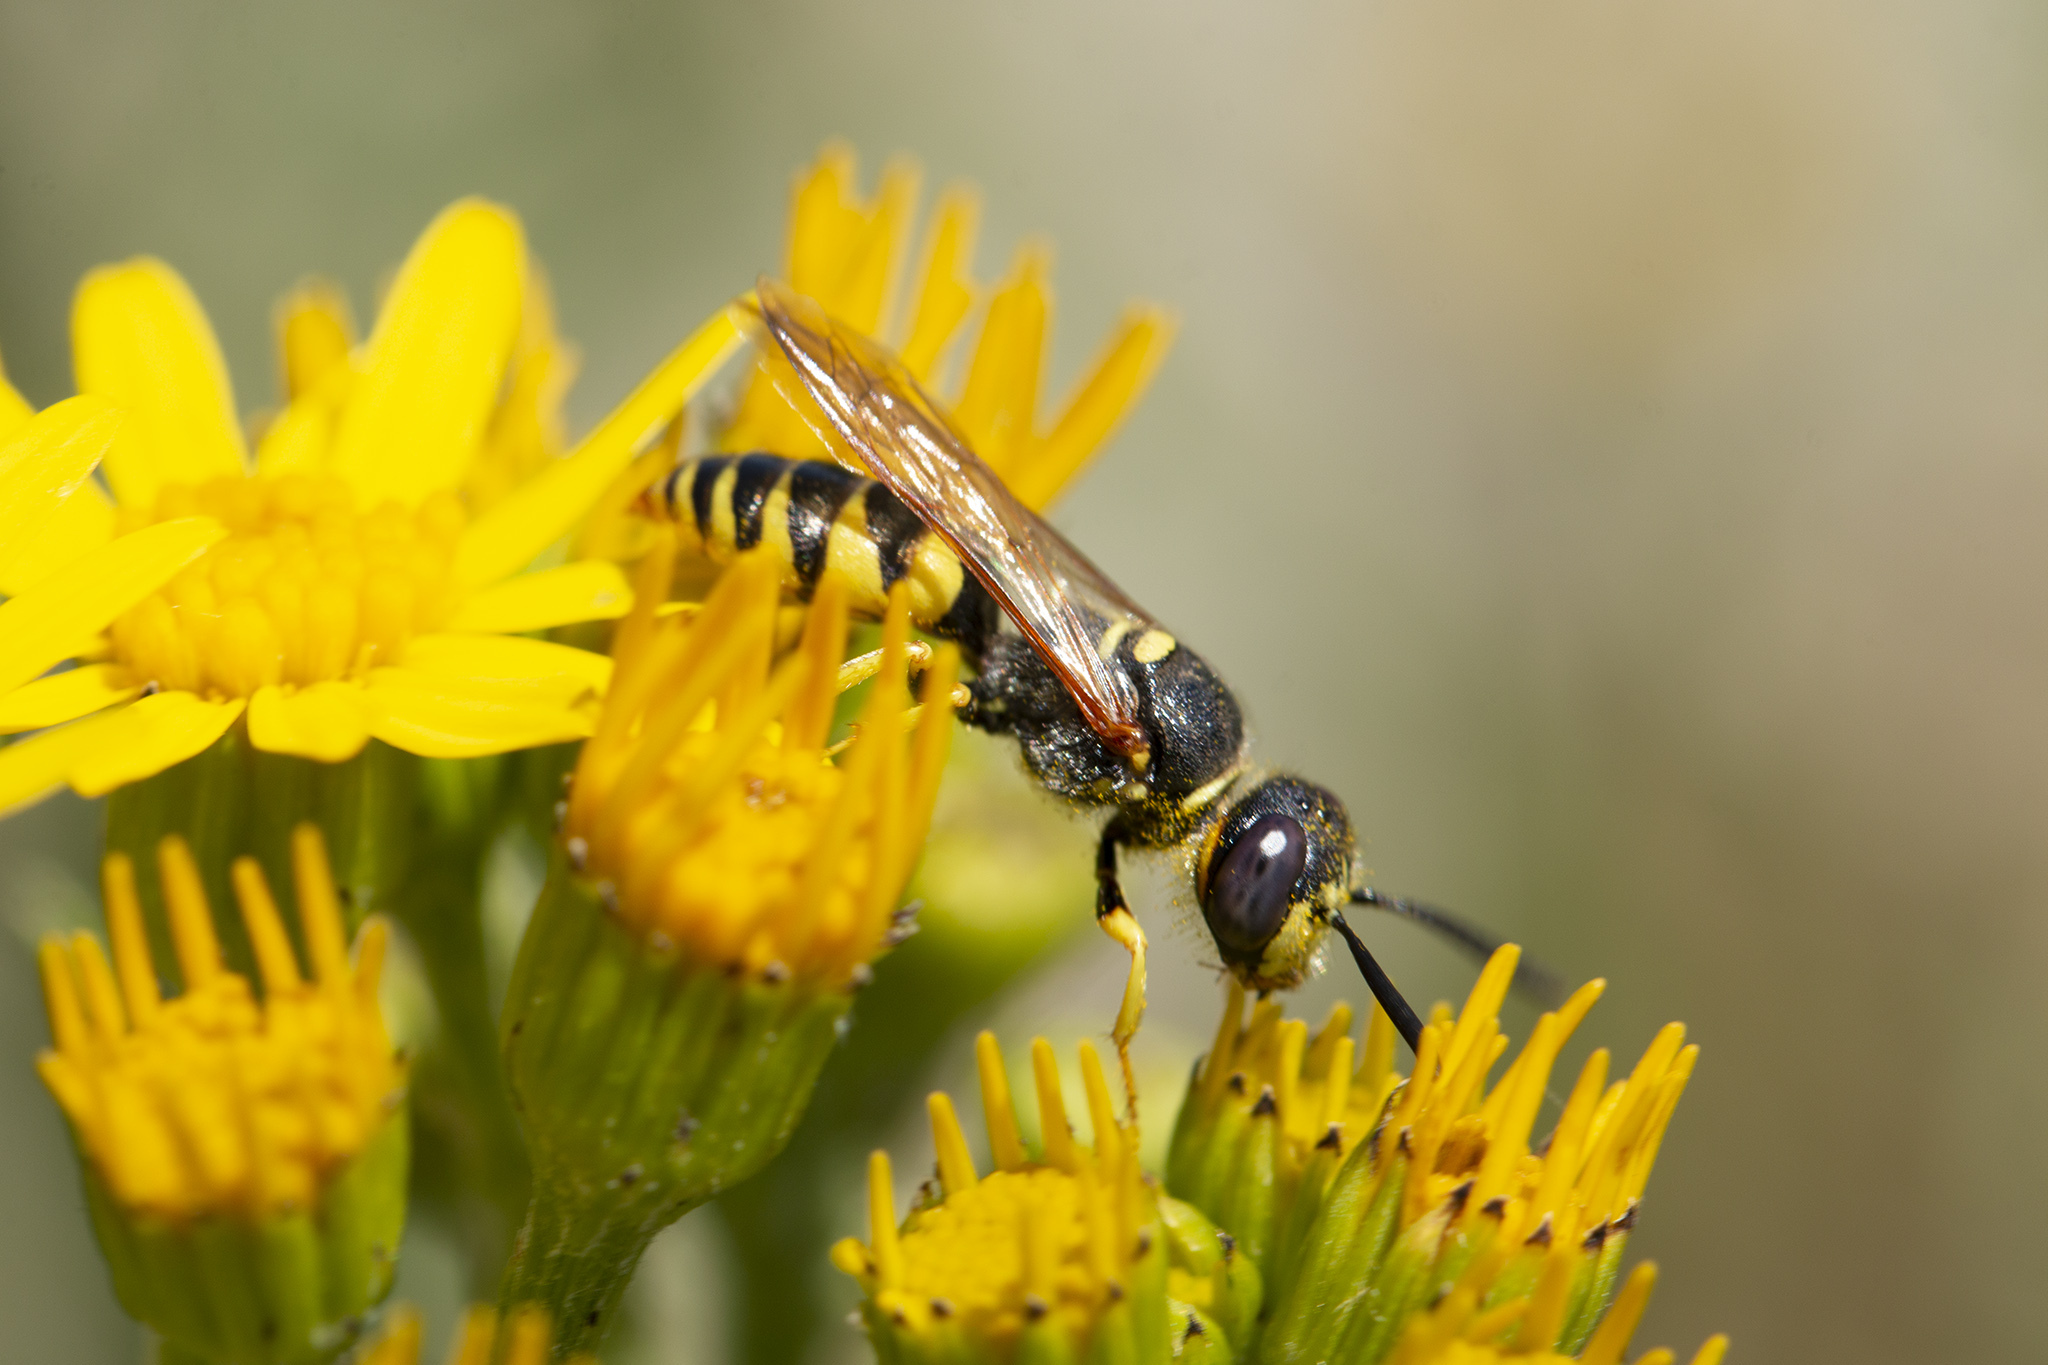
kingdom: Animalia
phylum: Arthropoda
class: Insecta
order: Hymenoptera
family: Crabronidae
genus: Philanthus
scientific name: Philanthus triangulum
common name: Bee wolf
